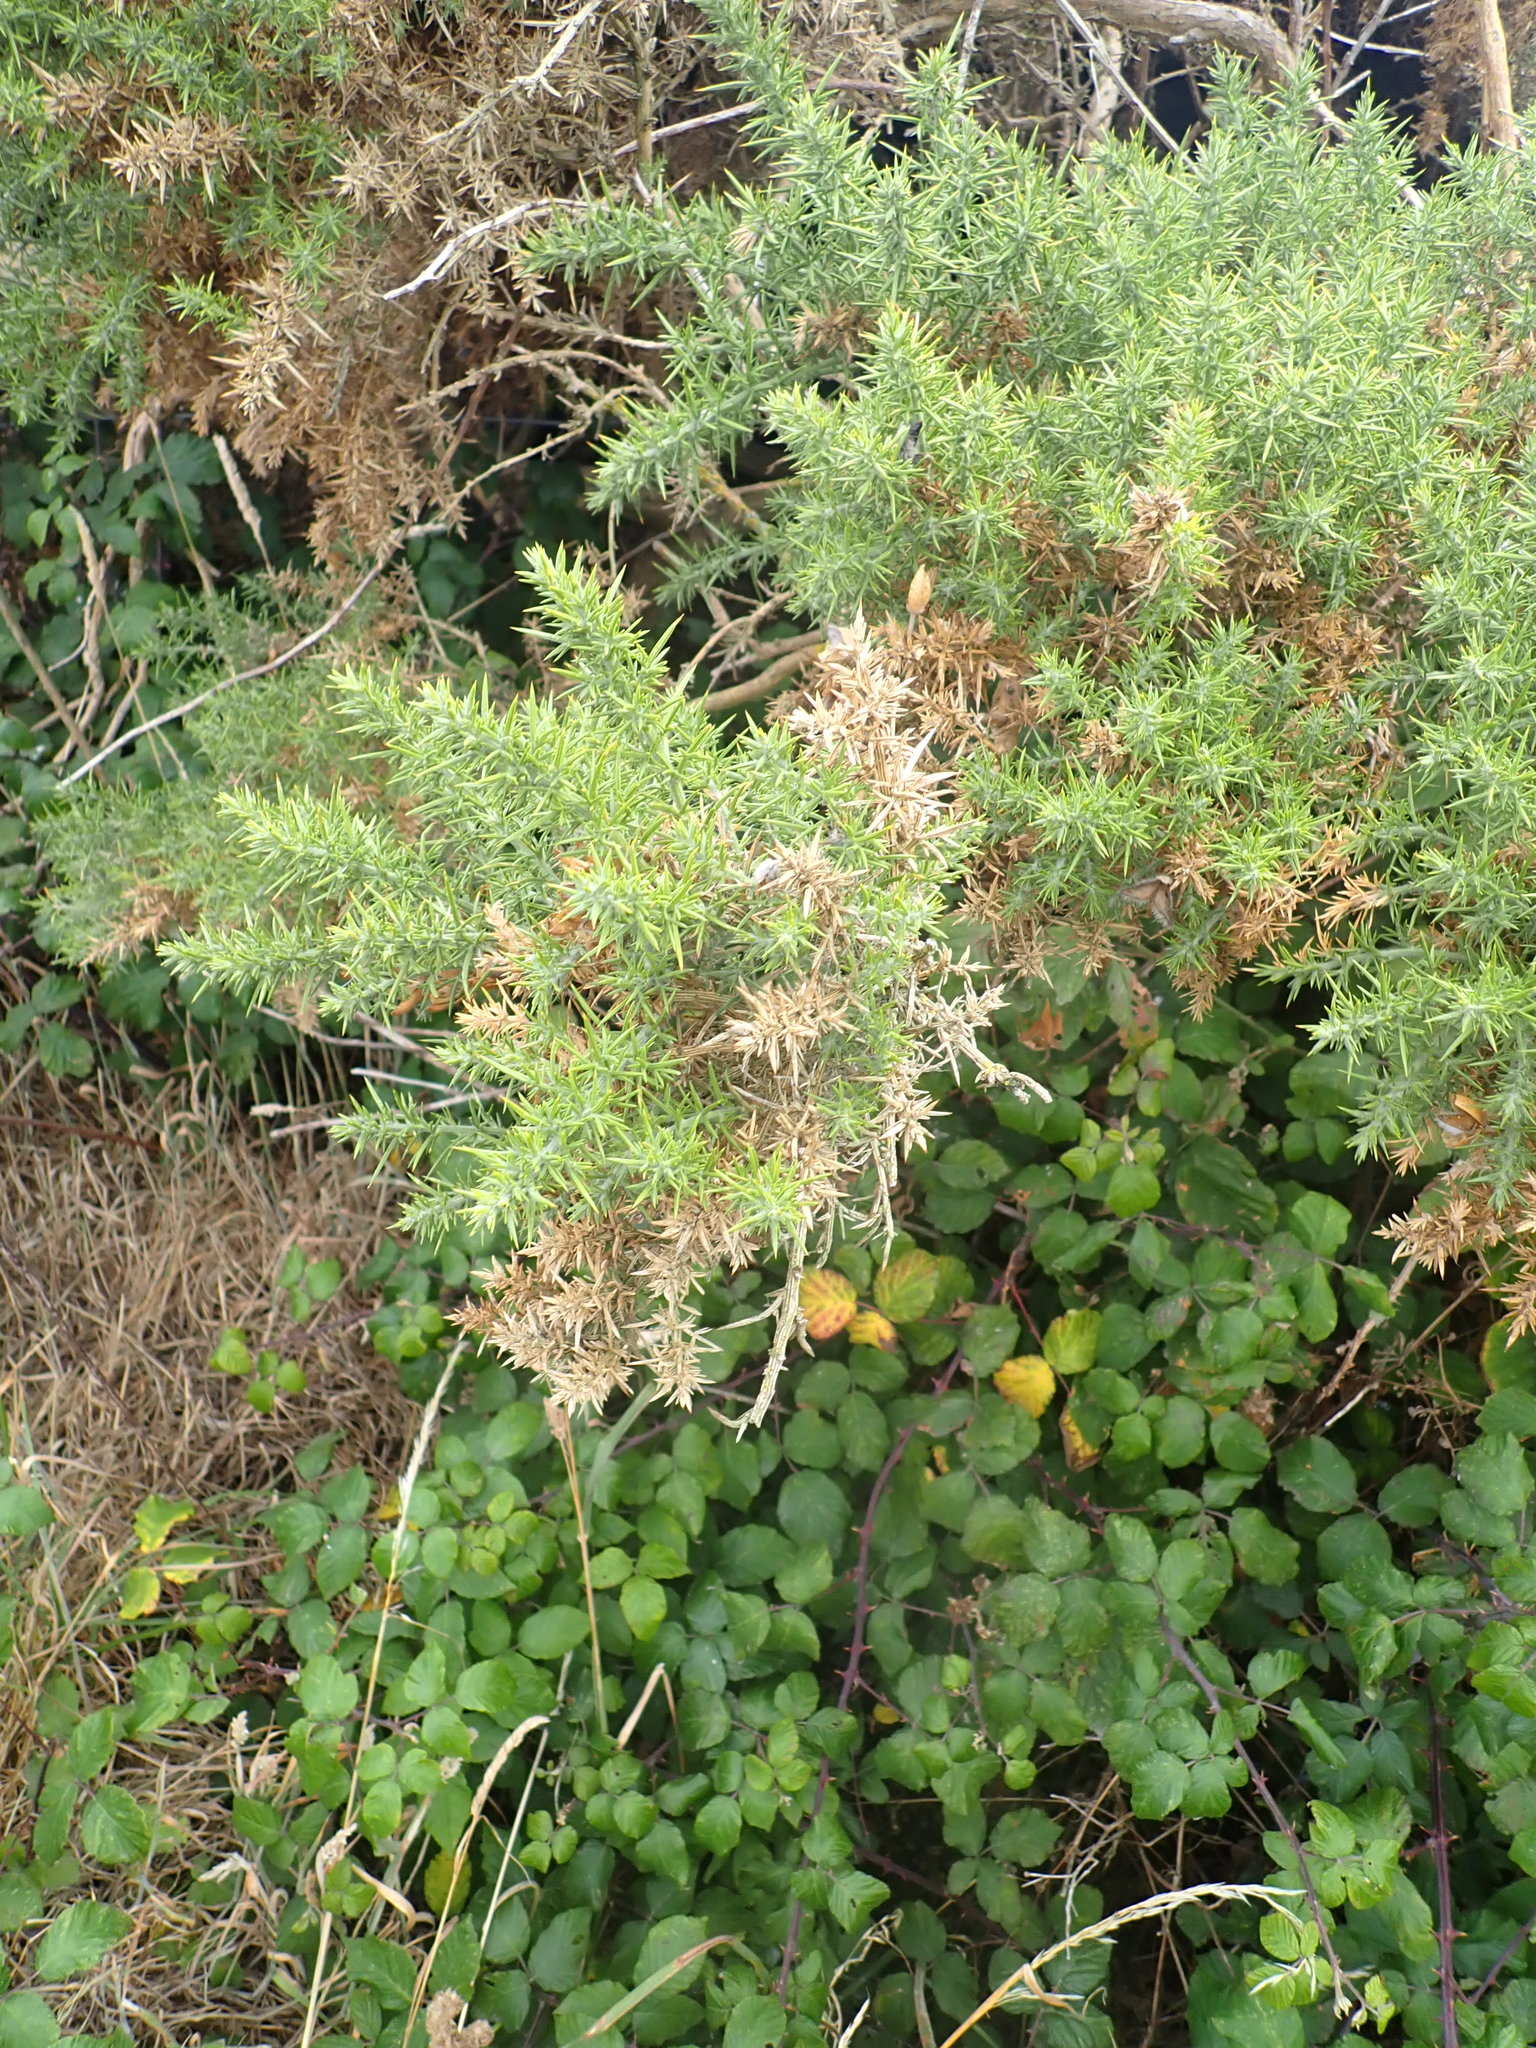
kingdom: Plantae
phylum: Tracheophyta
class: Magnoliopsida
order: Fabales
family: Fabaceae
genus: Ulex
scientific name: Ulex europaeus
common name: Common gorse
